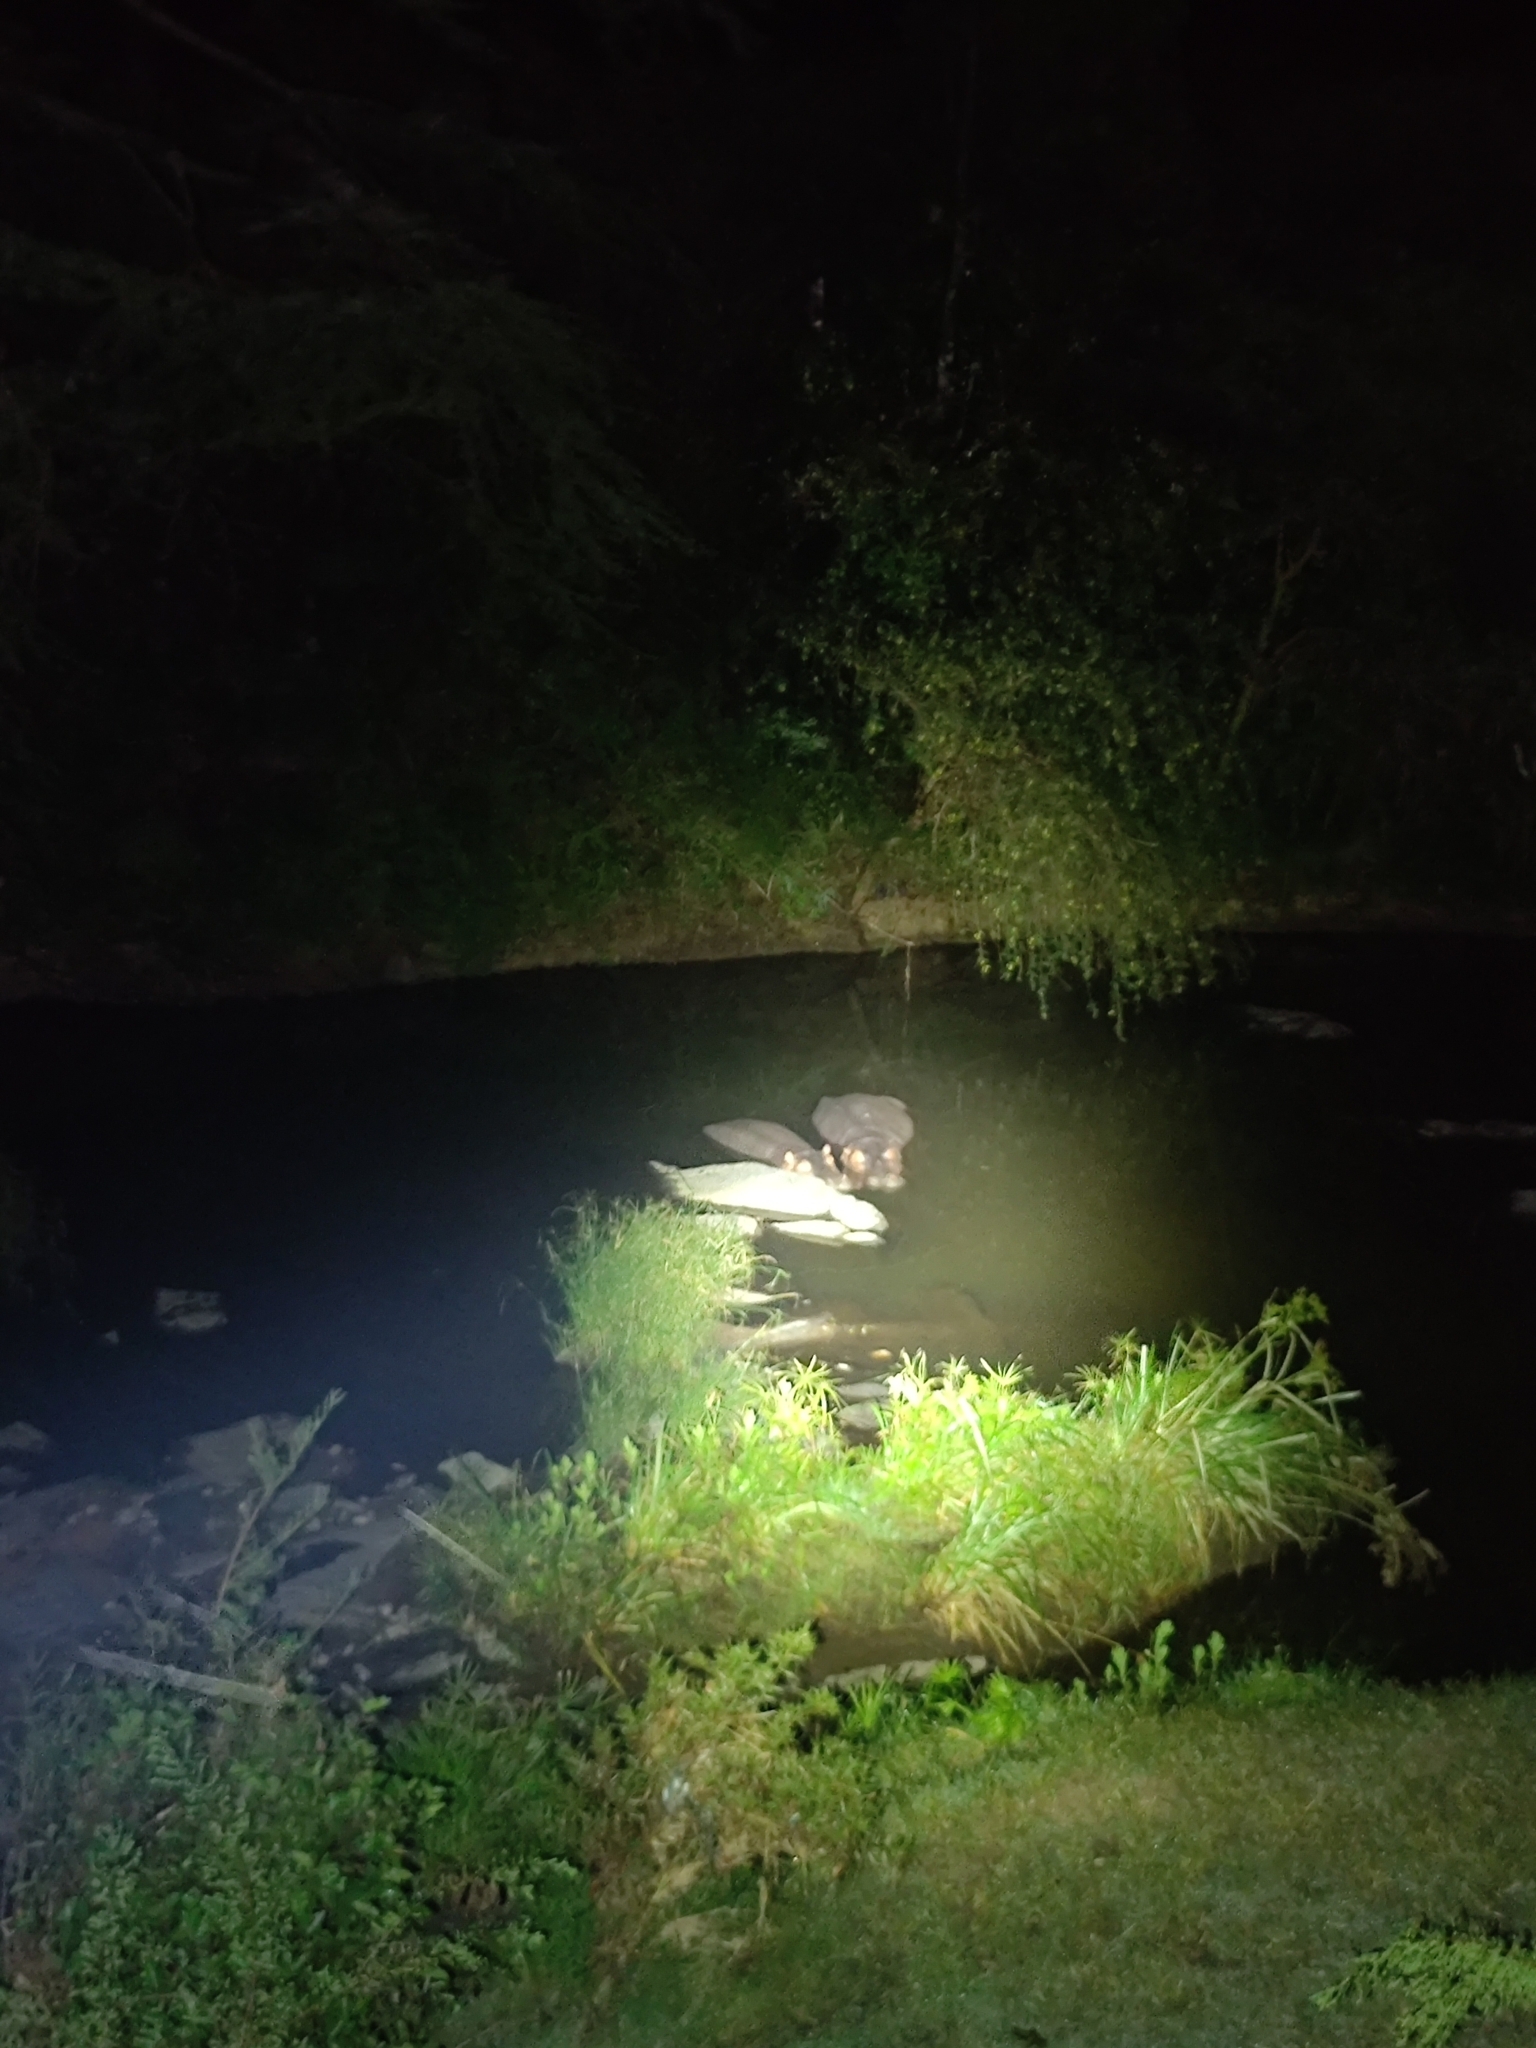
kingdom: Animalia
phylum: Chordata
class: Mammalia
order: Artiodactyla
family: Hippopotamidae
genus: Hippopotamus
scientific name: Hippopotamus amphibius
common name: Common hippopotamus
